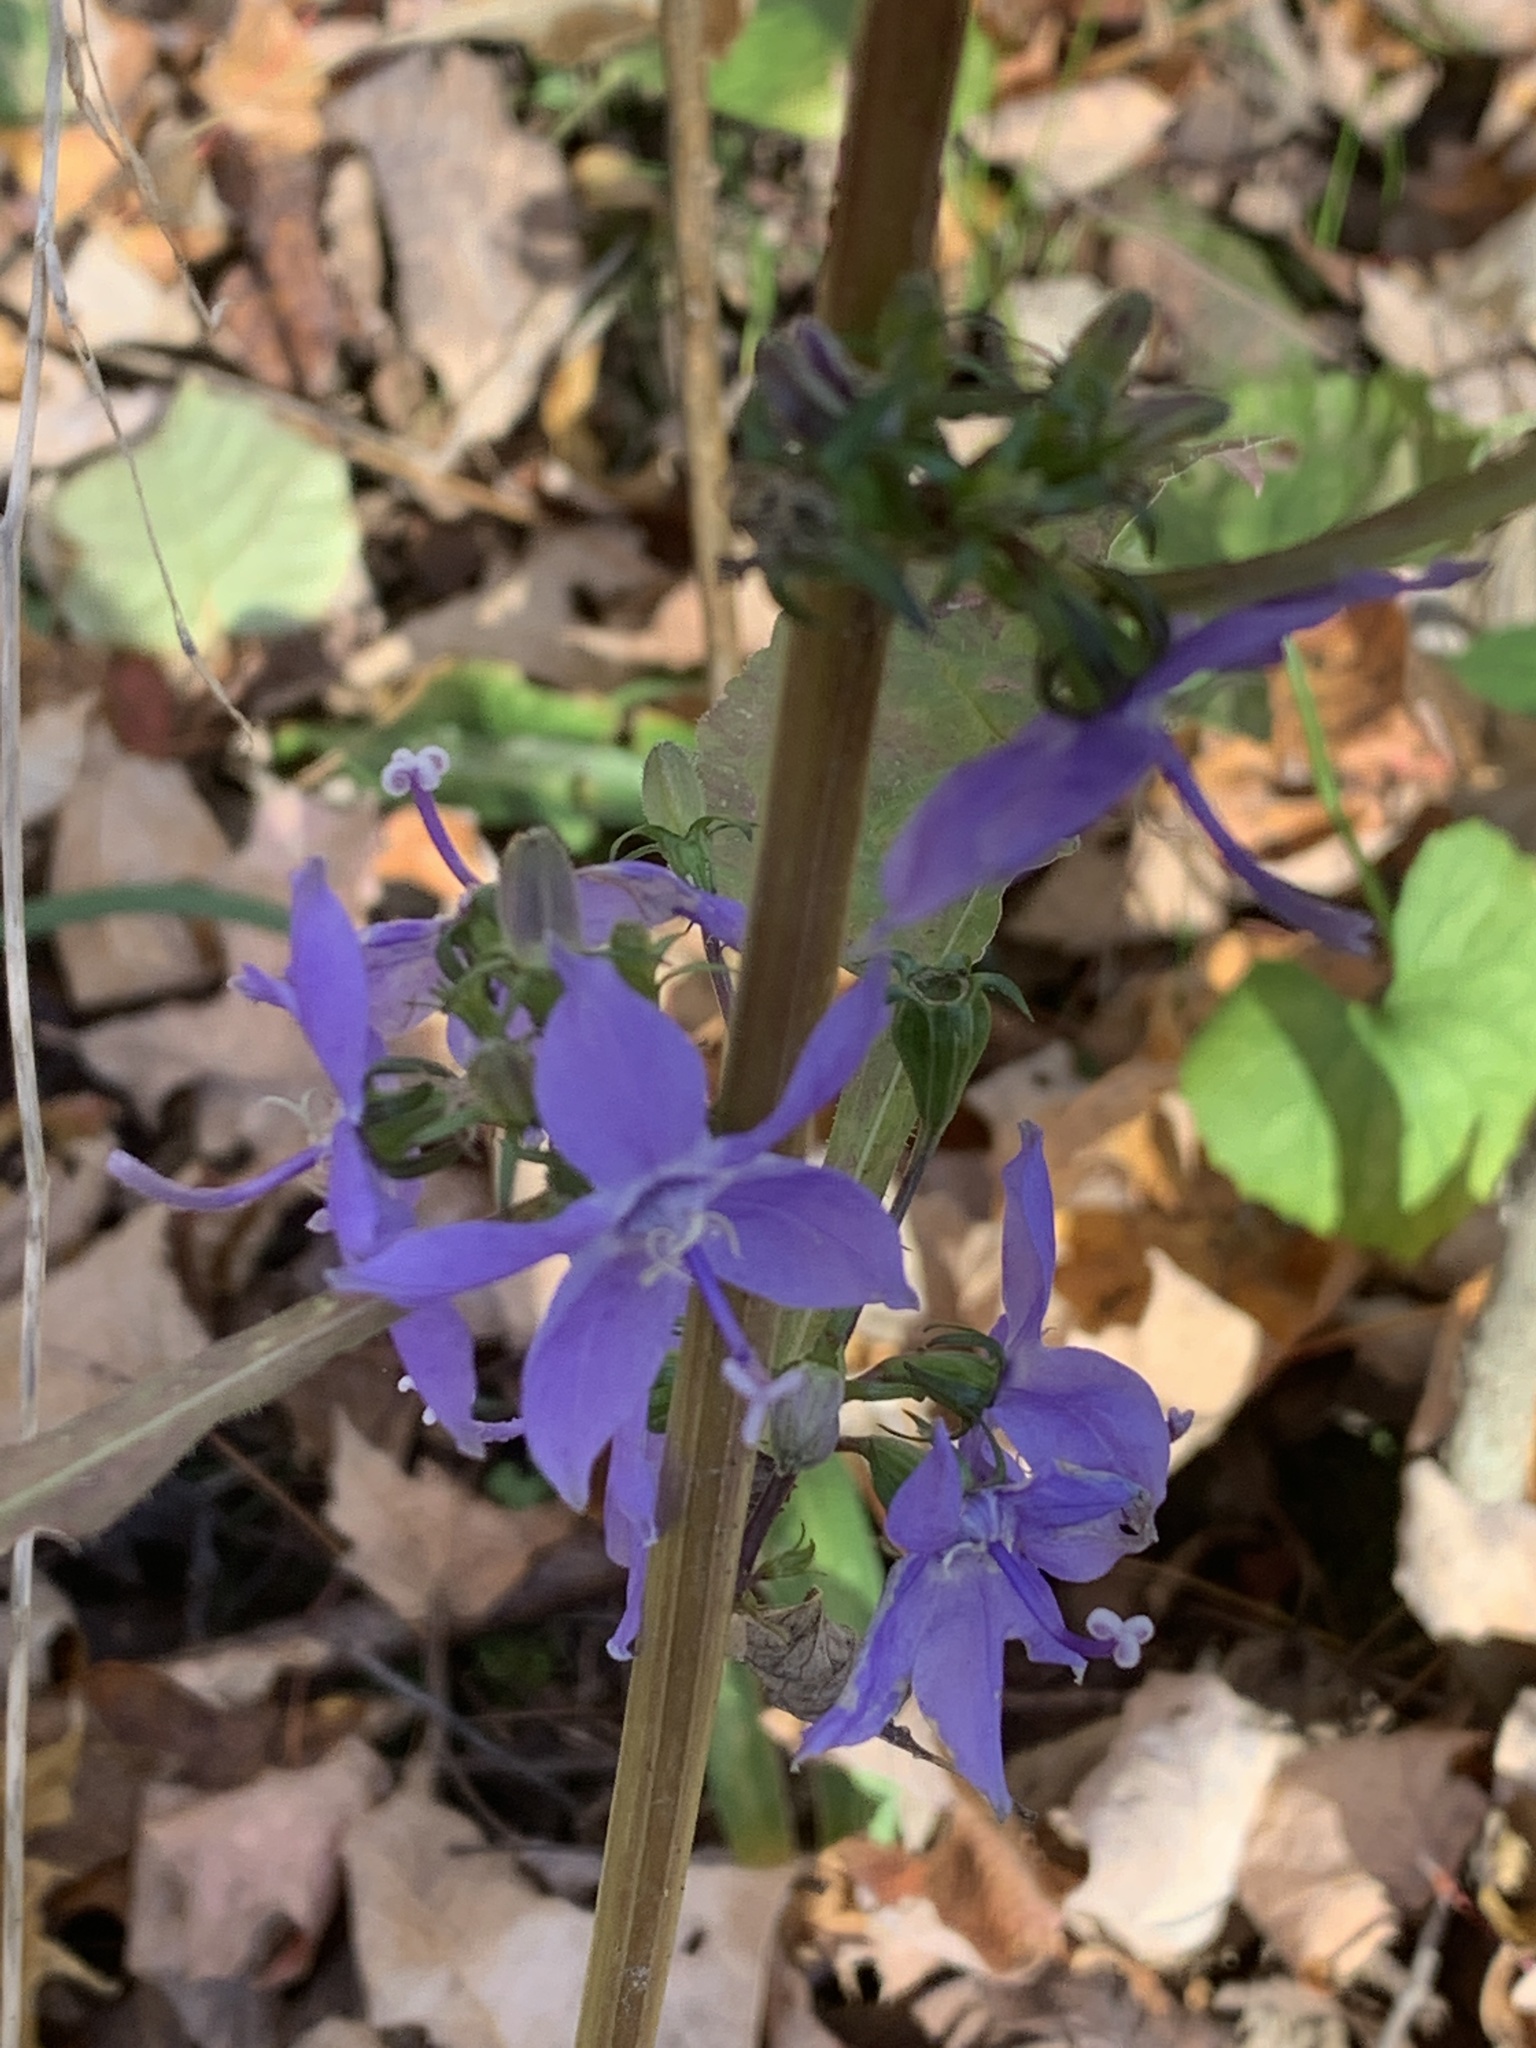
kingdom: Plantae
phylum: Tracheophyta
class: Magnoliopsida
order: Asterales
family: Campanulaceae
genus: Campanulastrum
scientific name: Campanulastrum americanum
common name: American bellflower
